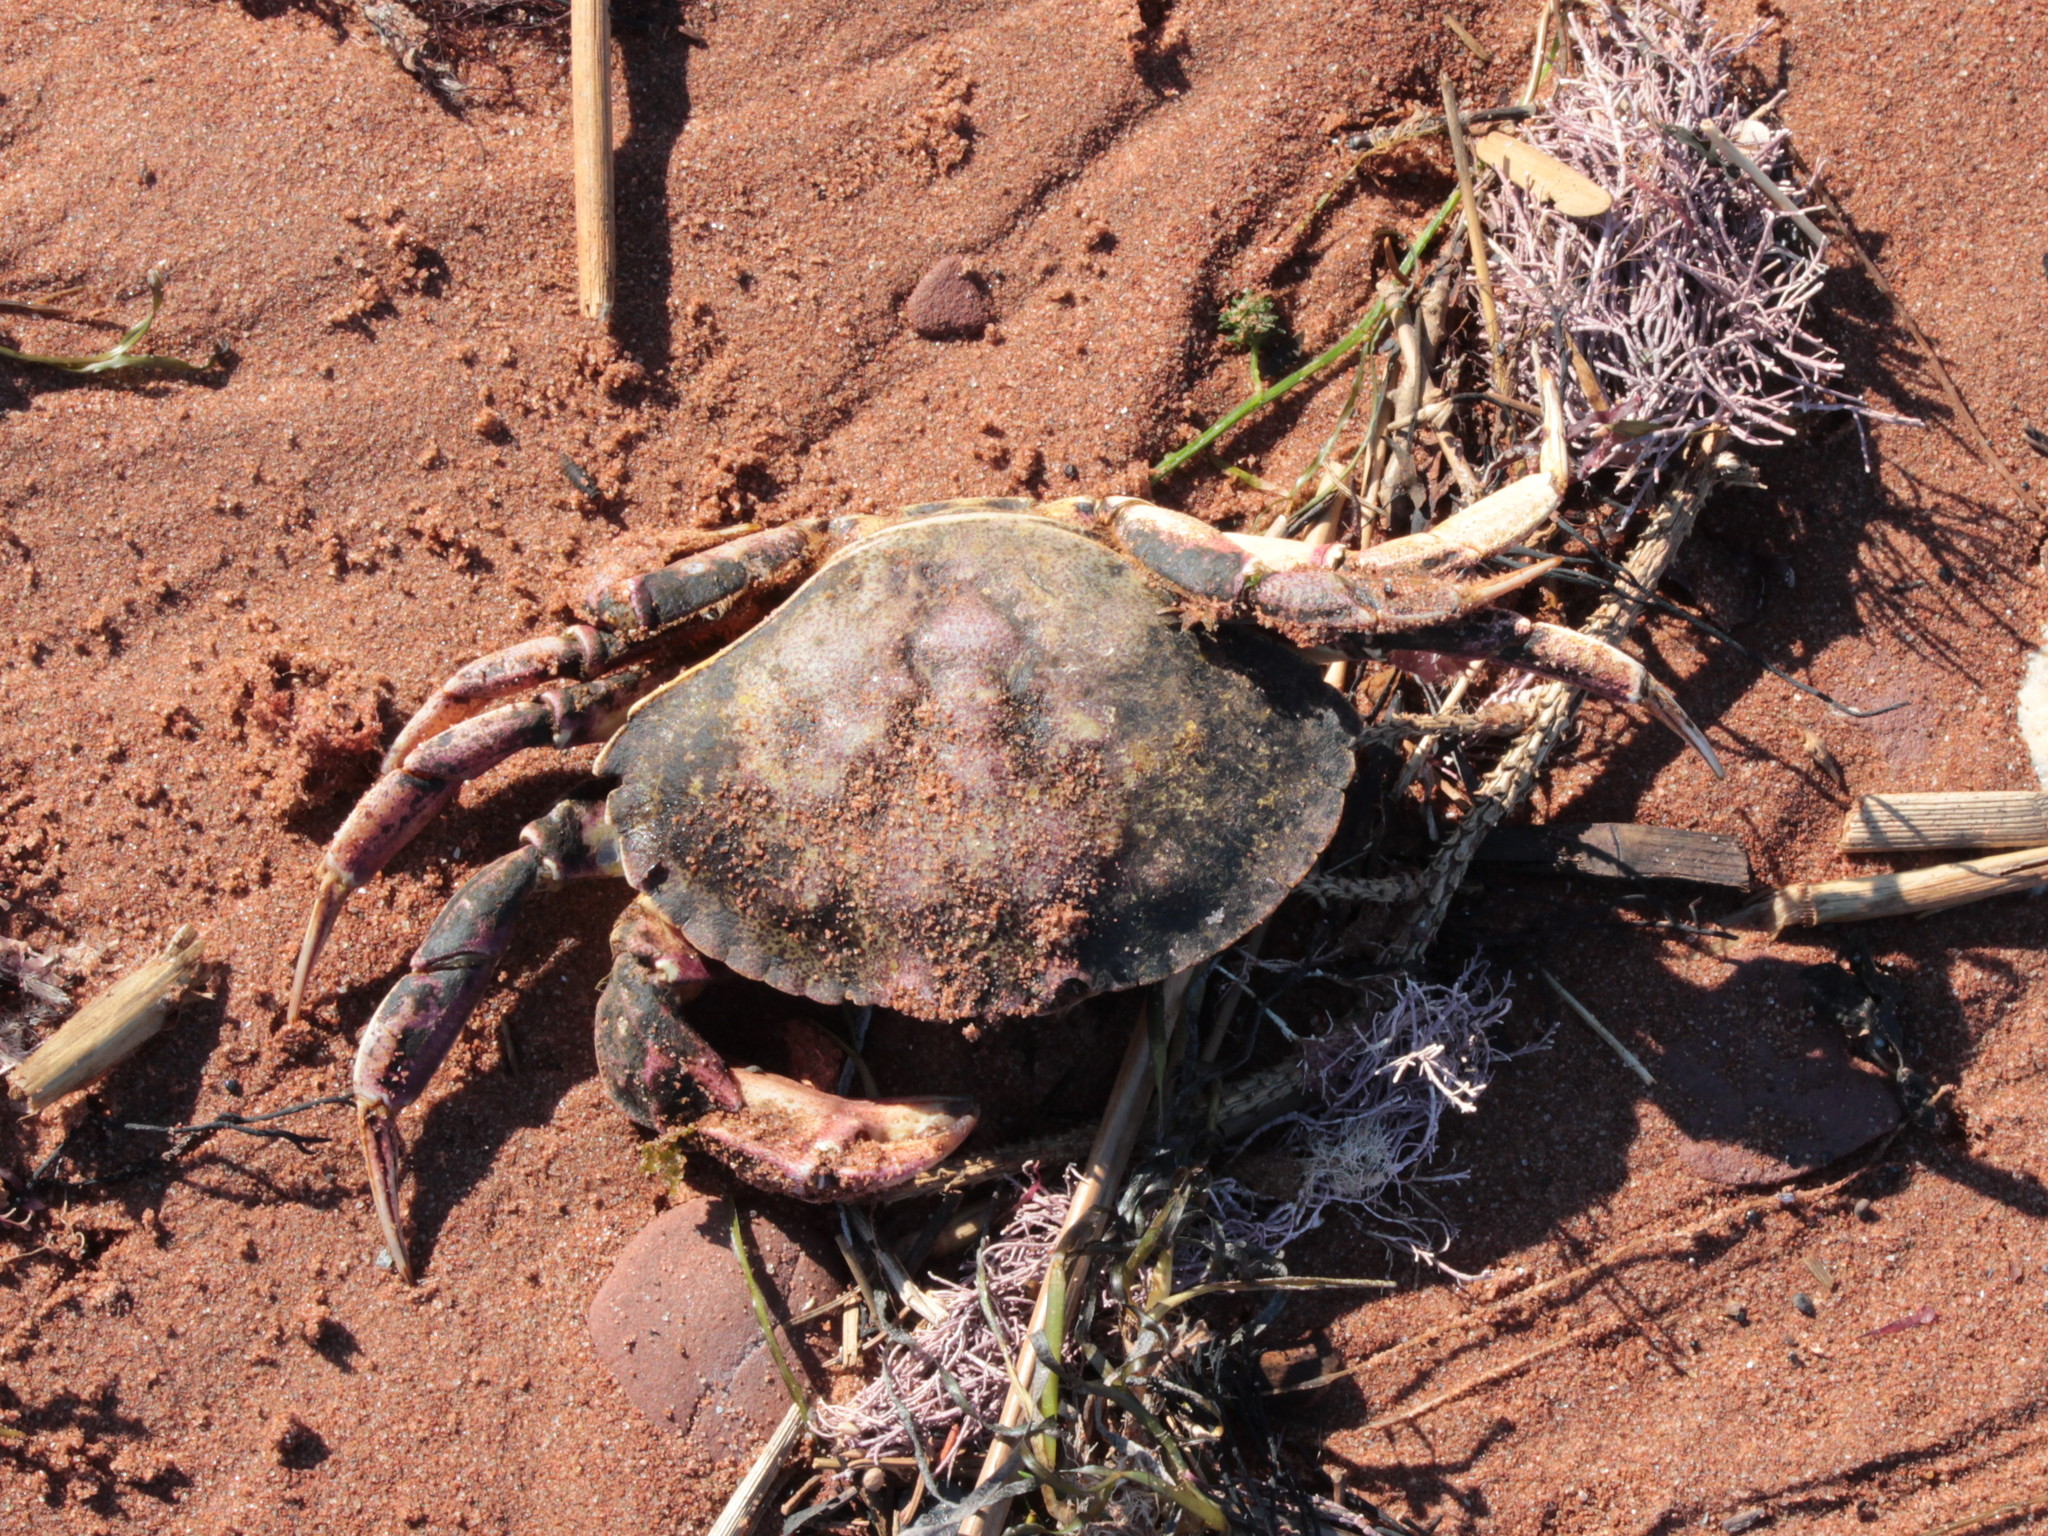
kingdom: Animalia
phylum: Arthropoda
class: Malacostraca
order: Decapoda
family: Cancridae
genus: Cancer
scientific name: Cancer irroratus
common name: Atlantic rock crab
